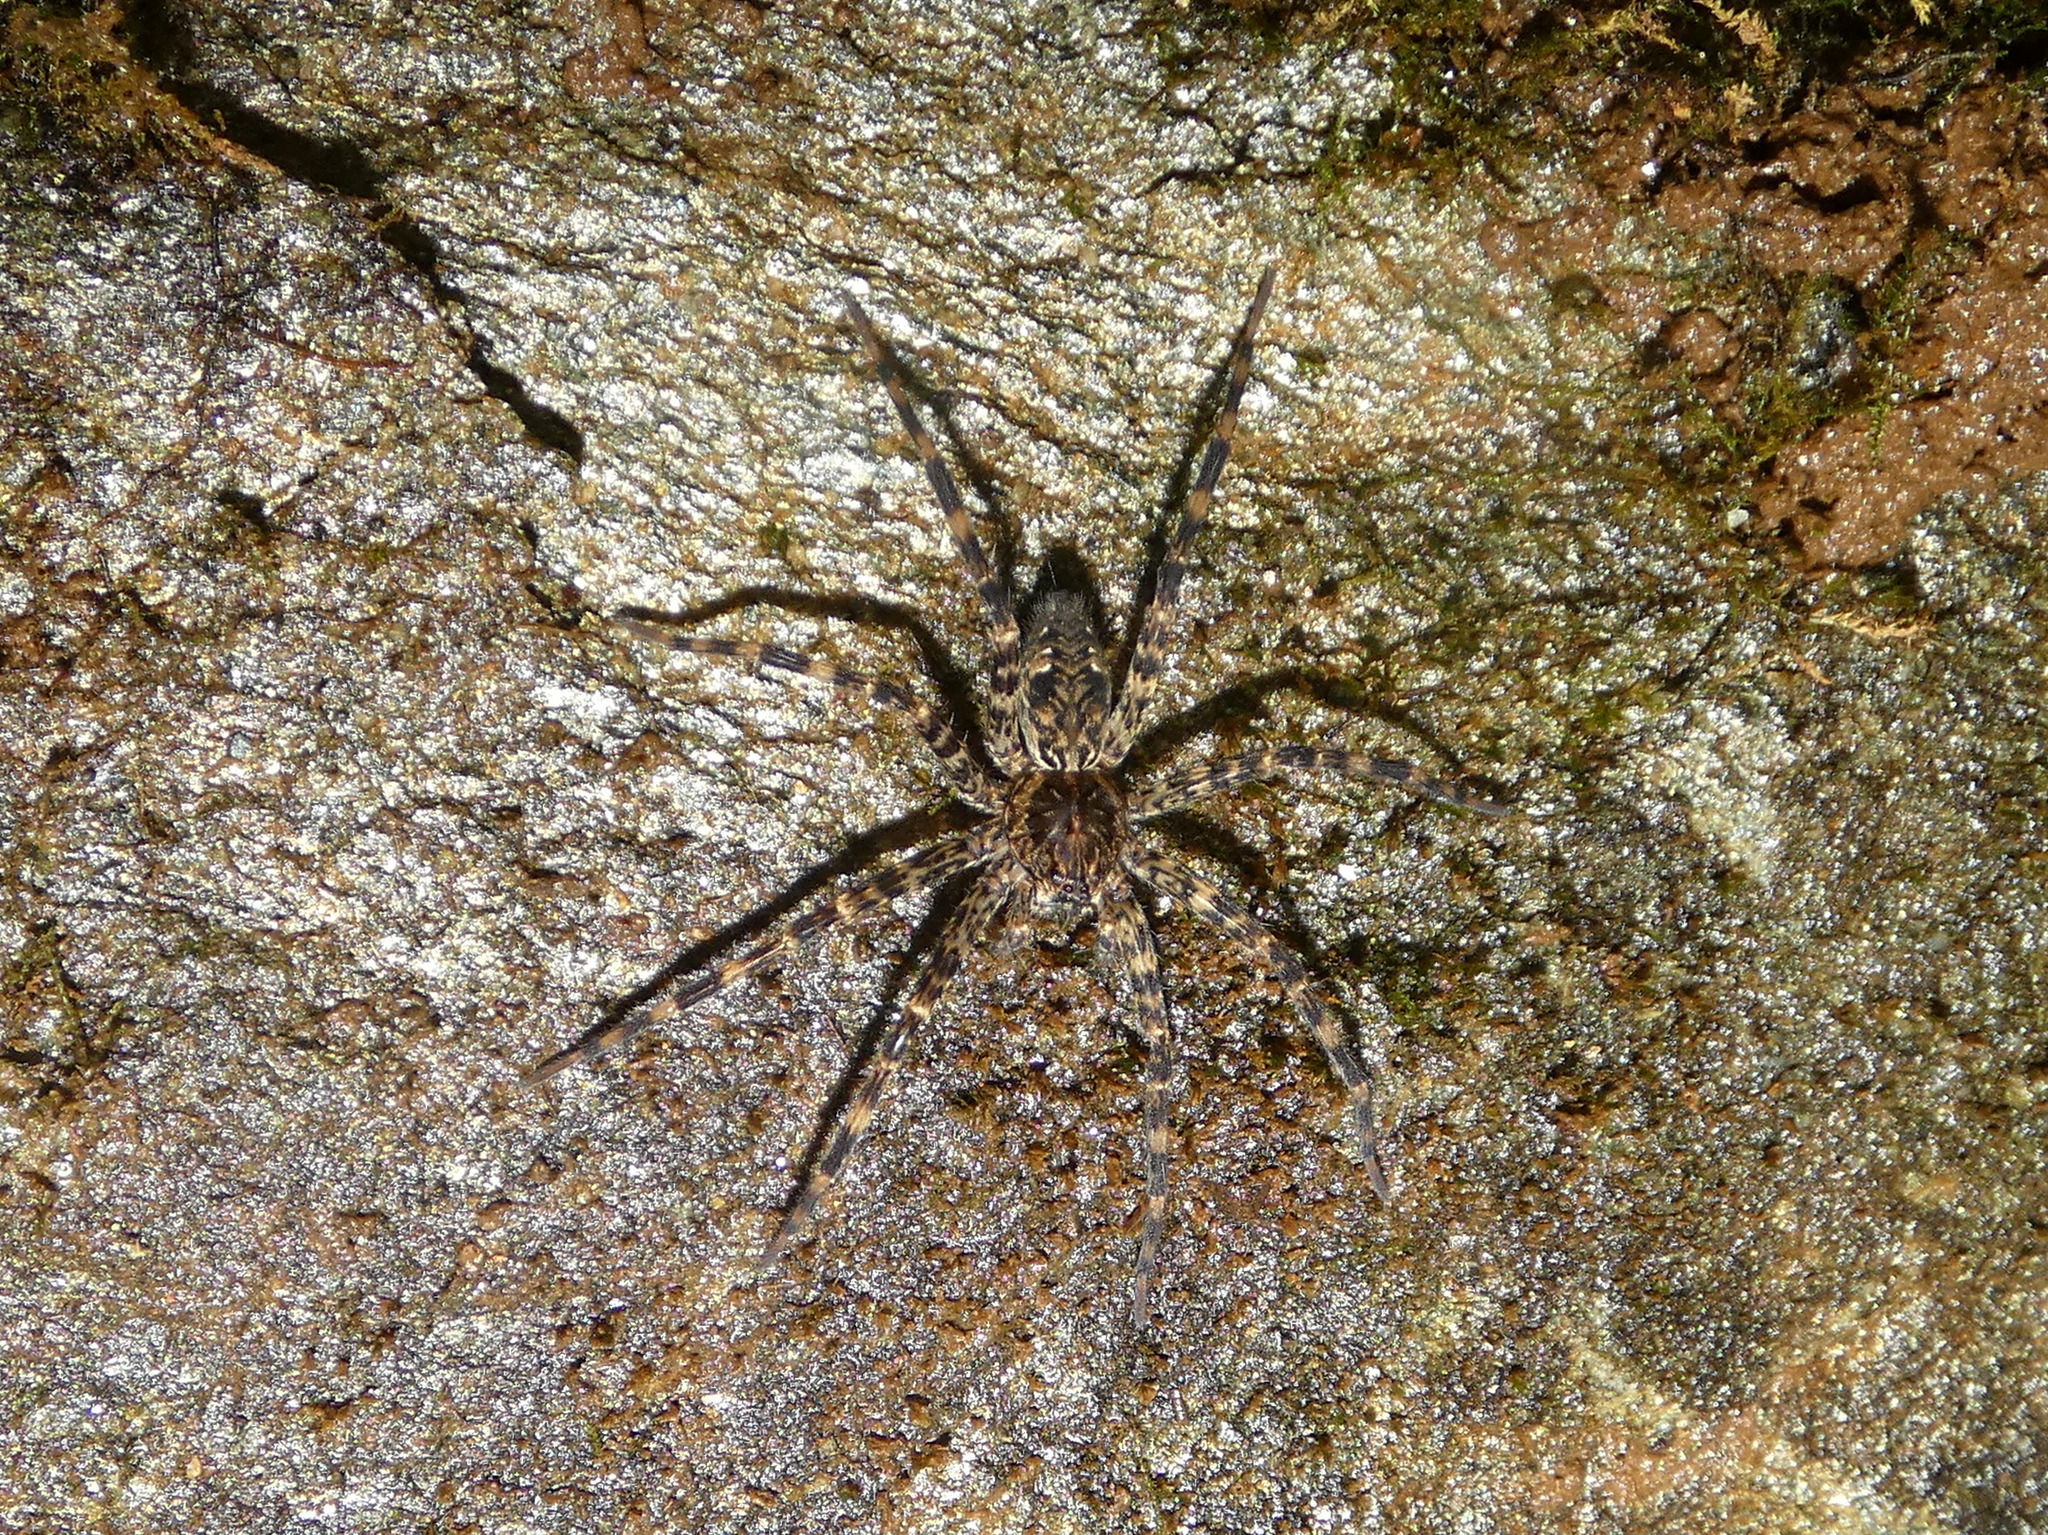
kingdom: Animalia
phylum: Arthropoda
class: Arachnida
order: Araneae
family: Pisauridae
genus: Dolomedes
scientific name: Dolomedes tenebrosus
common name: Dark fishing spider
